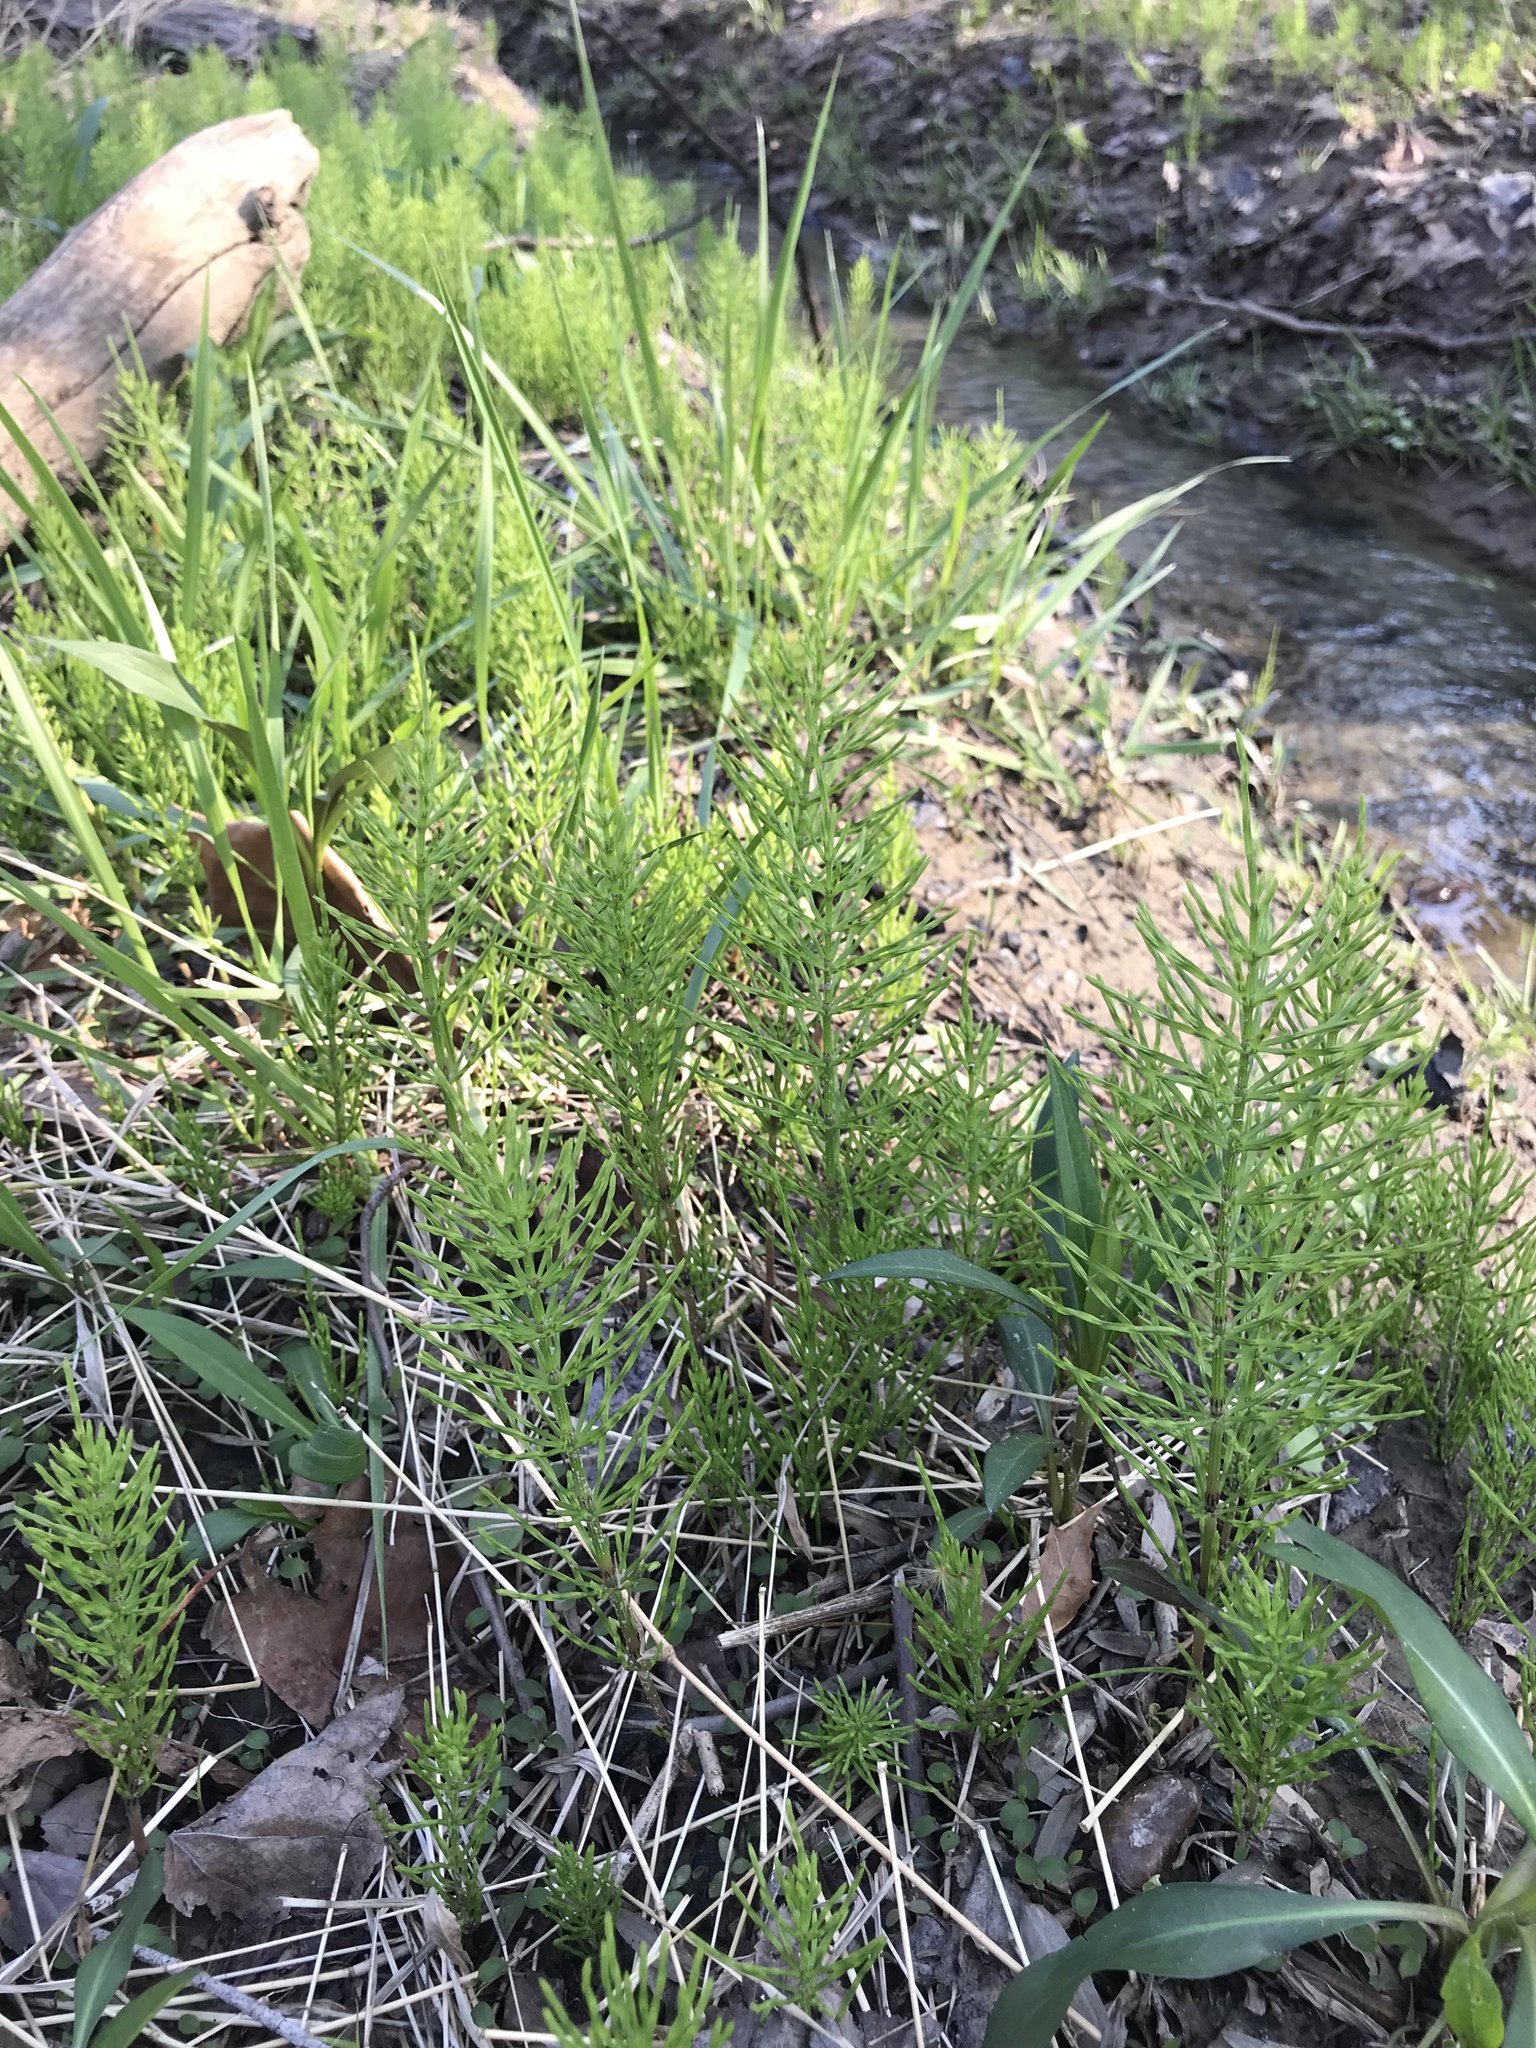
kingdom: Plantae
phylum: Tracheophyta
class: Polypodiopsida
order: Equisetales
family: Equisetaceae
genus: Equisetum
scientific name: Equisetum arvense
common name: Field horsetail
